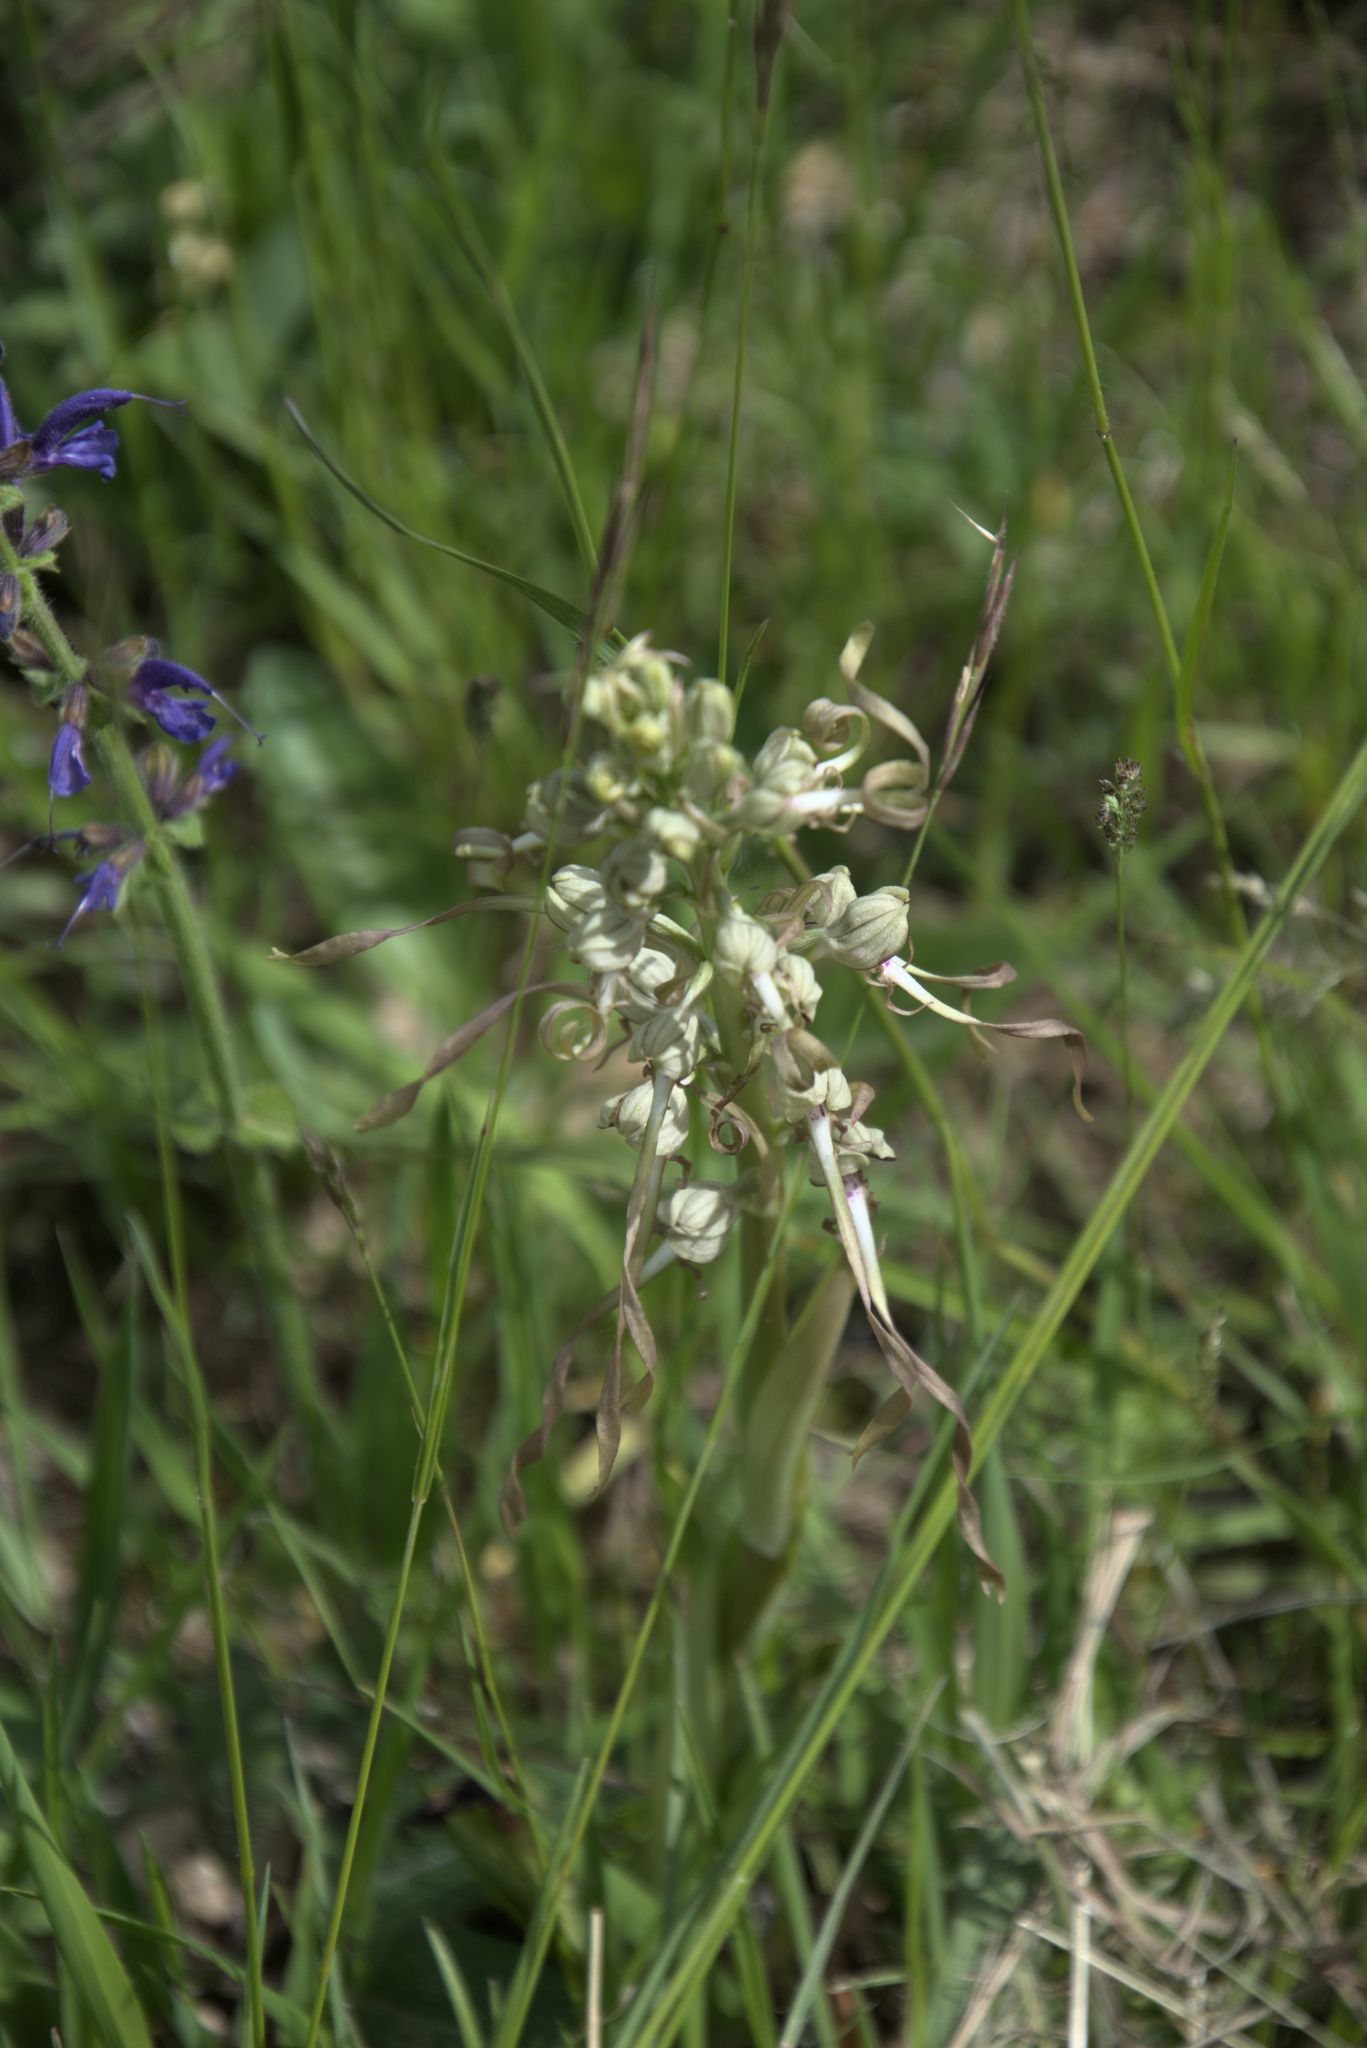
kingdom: Plantae
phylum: Tracheophyta
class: Liliopsida
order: Asparagales
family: Orchidaceae
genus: Himantoglossum
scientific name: Himantoglossum hircinum
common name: Lizard orchid
